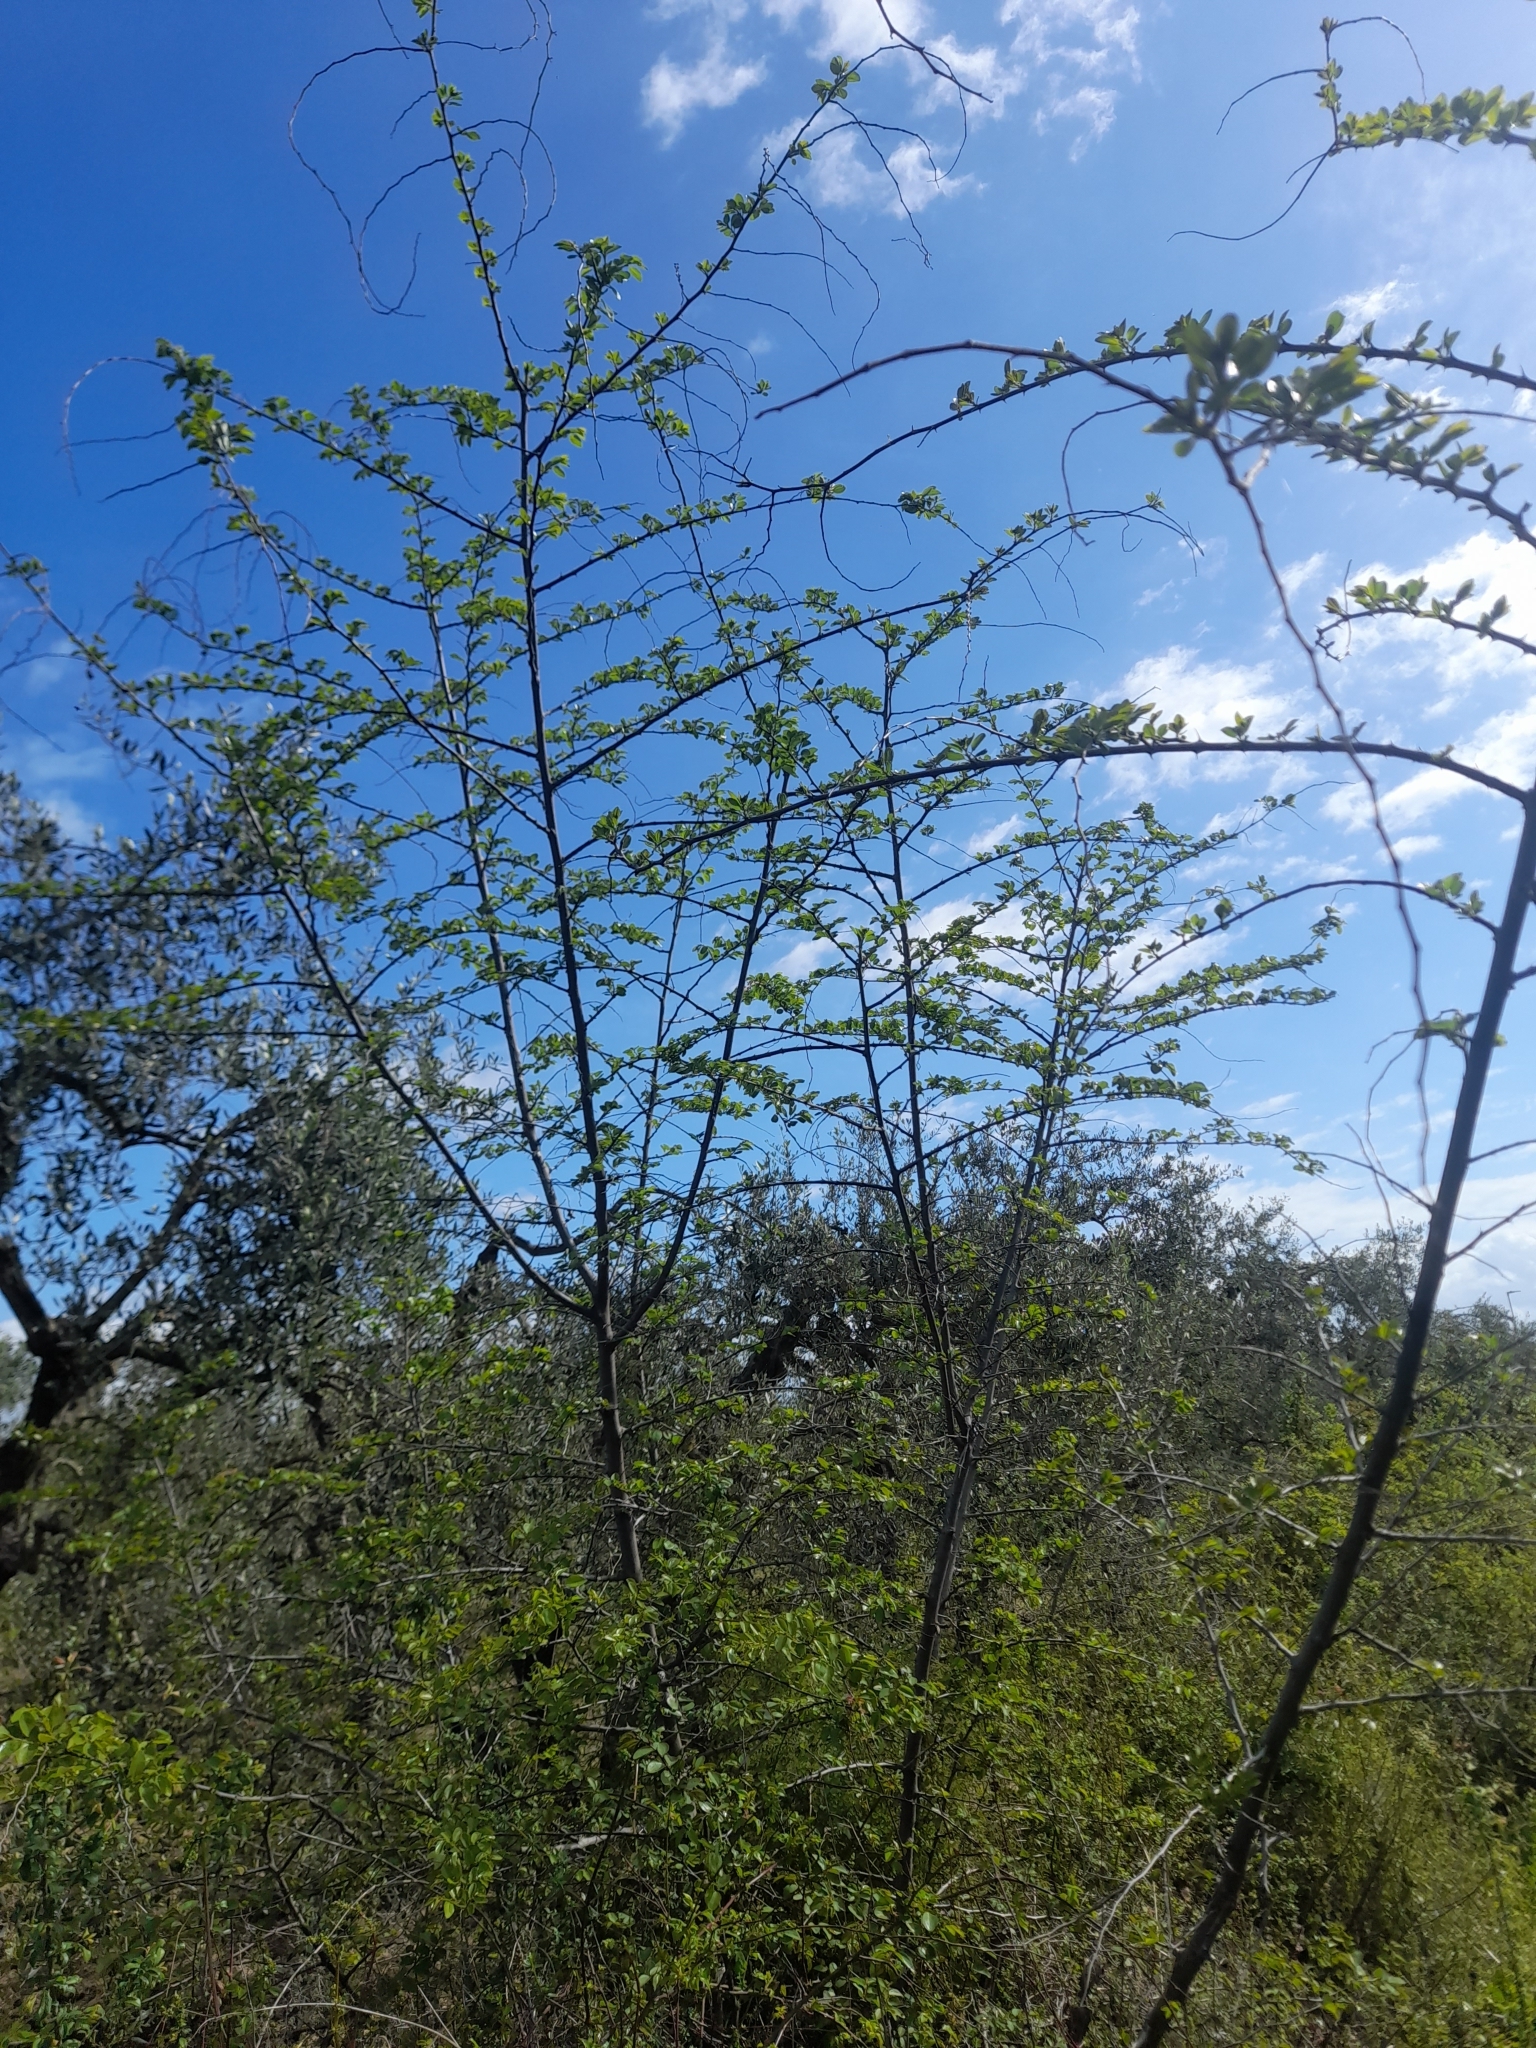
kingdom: Plantae
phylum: Tracheophyta
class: Magnoliopsida
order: Rosales
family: Rhamnaceae
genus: Paliurus
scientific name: Paliurus spina-christi
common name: Jeruselem thorn
